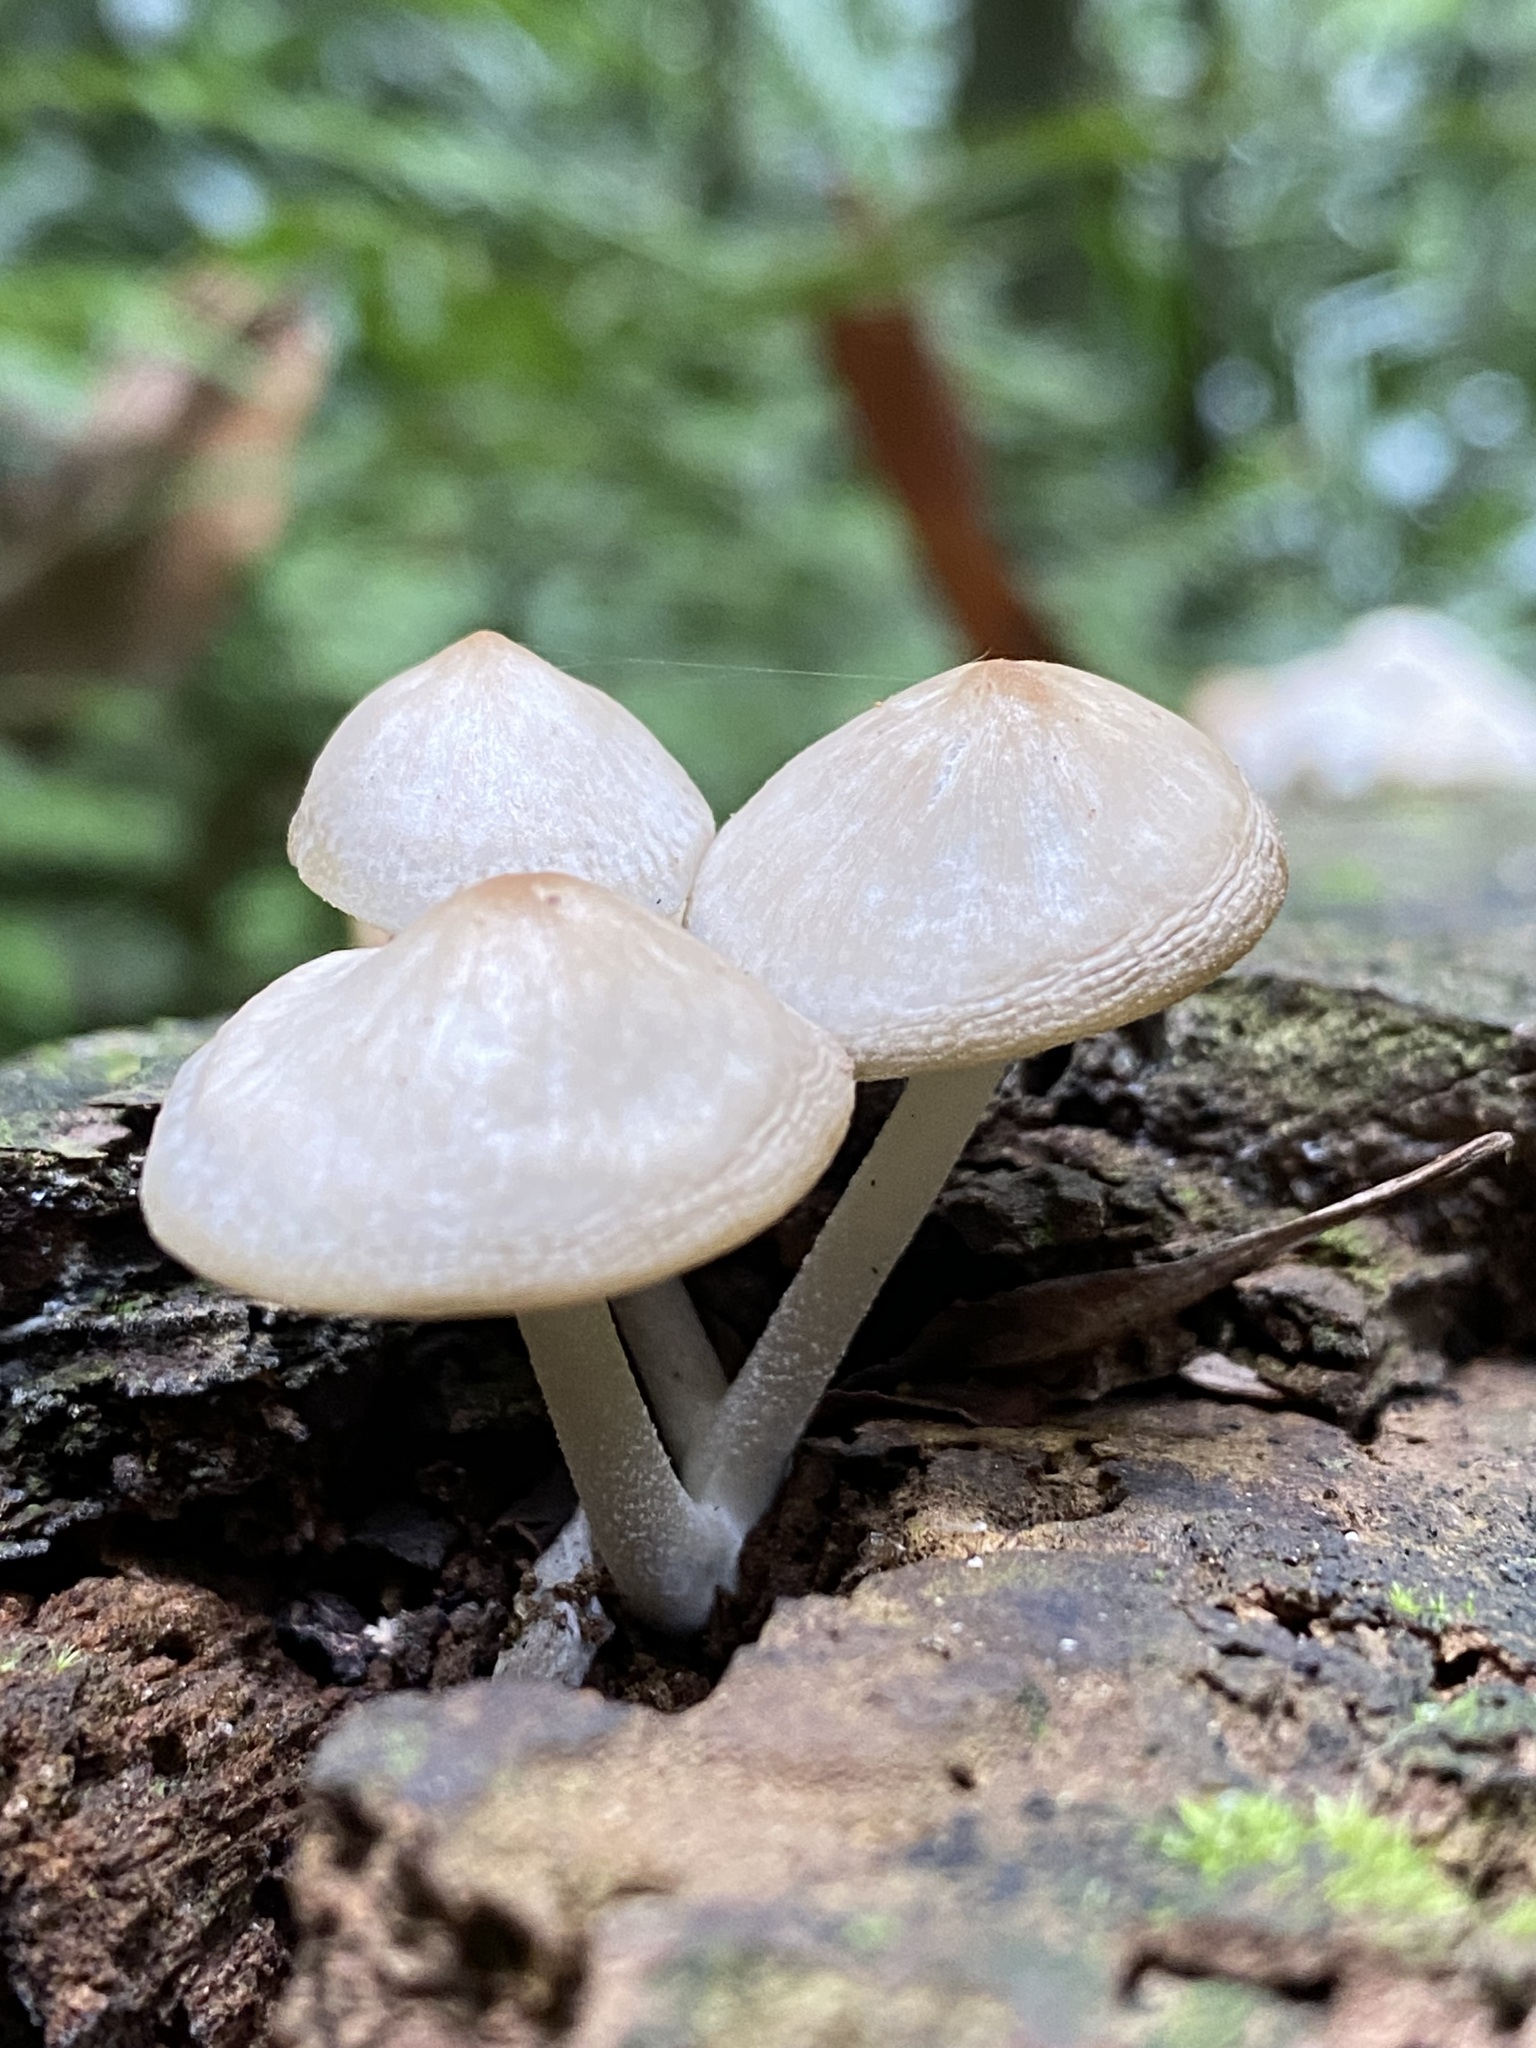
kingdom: Fungi
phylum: Basidiomycota
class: Agaricomycetes
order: Agaricales
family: Mycenaceae
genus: Filoboletus
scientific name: Filoboletus manipularis
